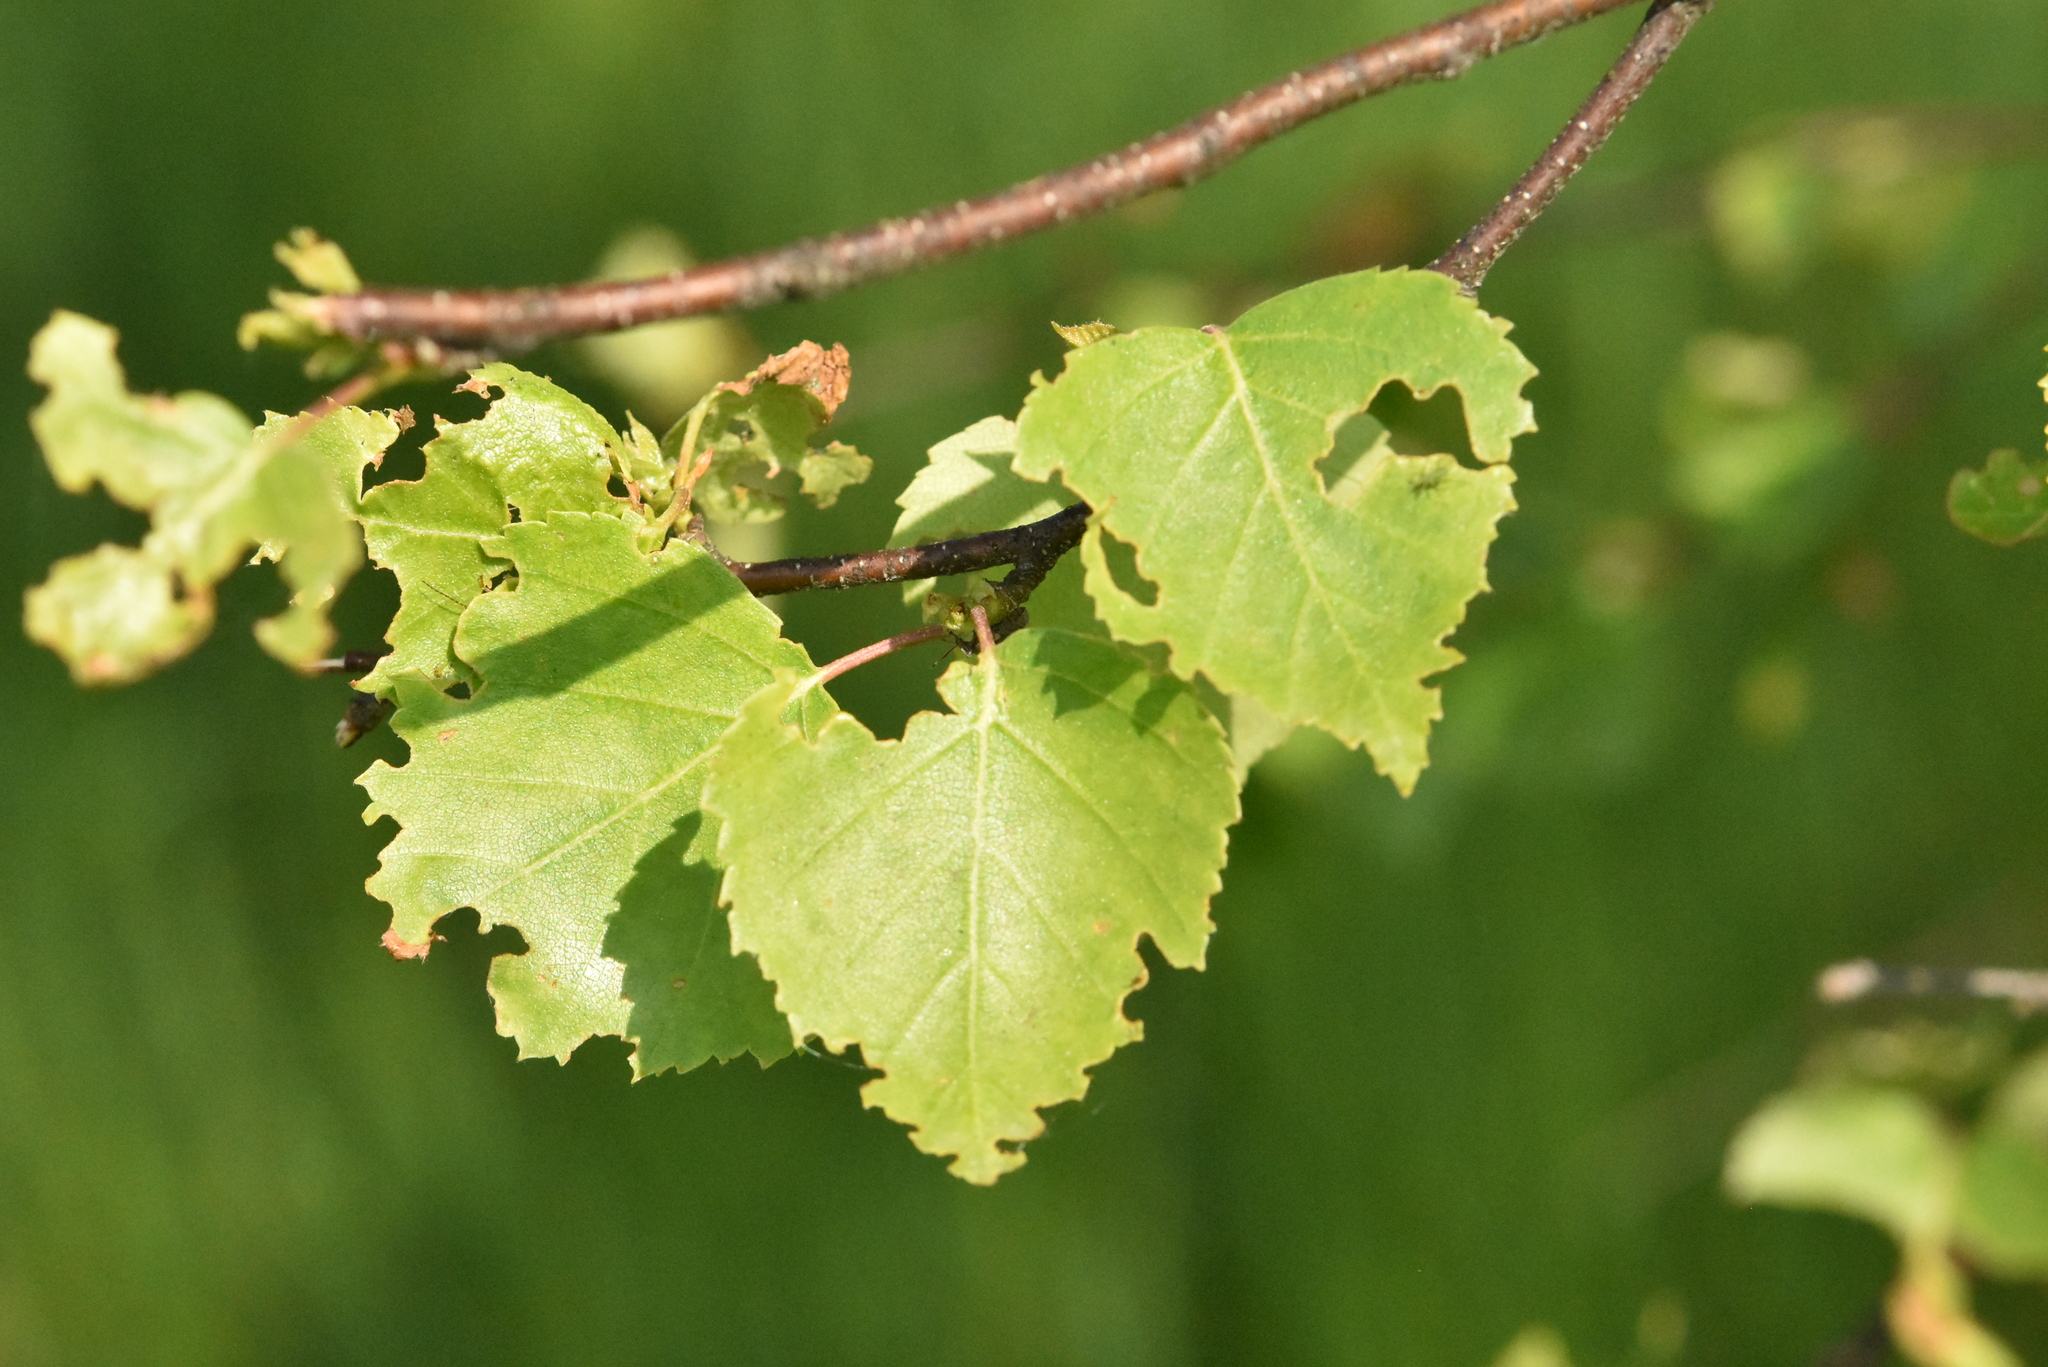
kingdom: Plantae
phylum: Tracheophyta
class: Magnoliopsida
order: Fagales
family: Betulaceae
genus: Betula
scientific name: Betula pendula
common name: Silver birch
